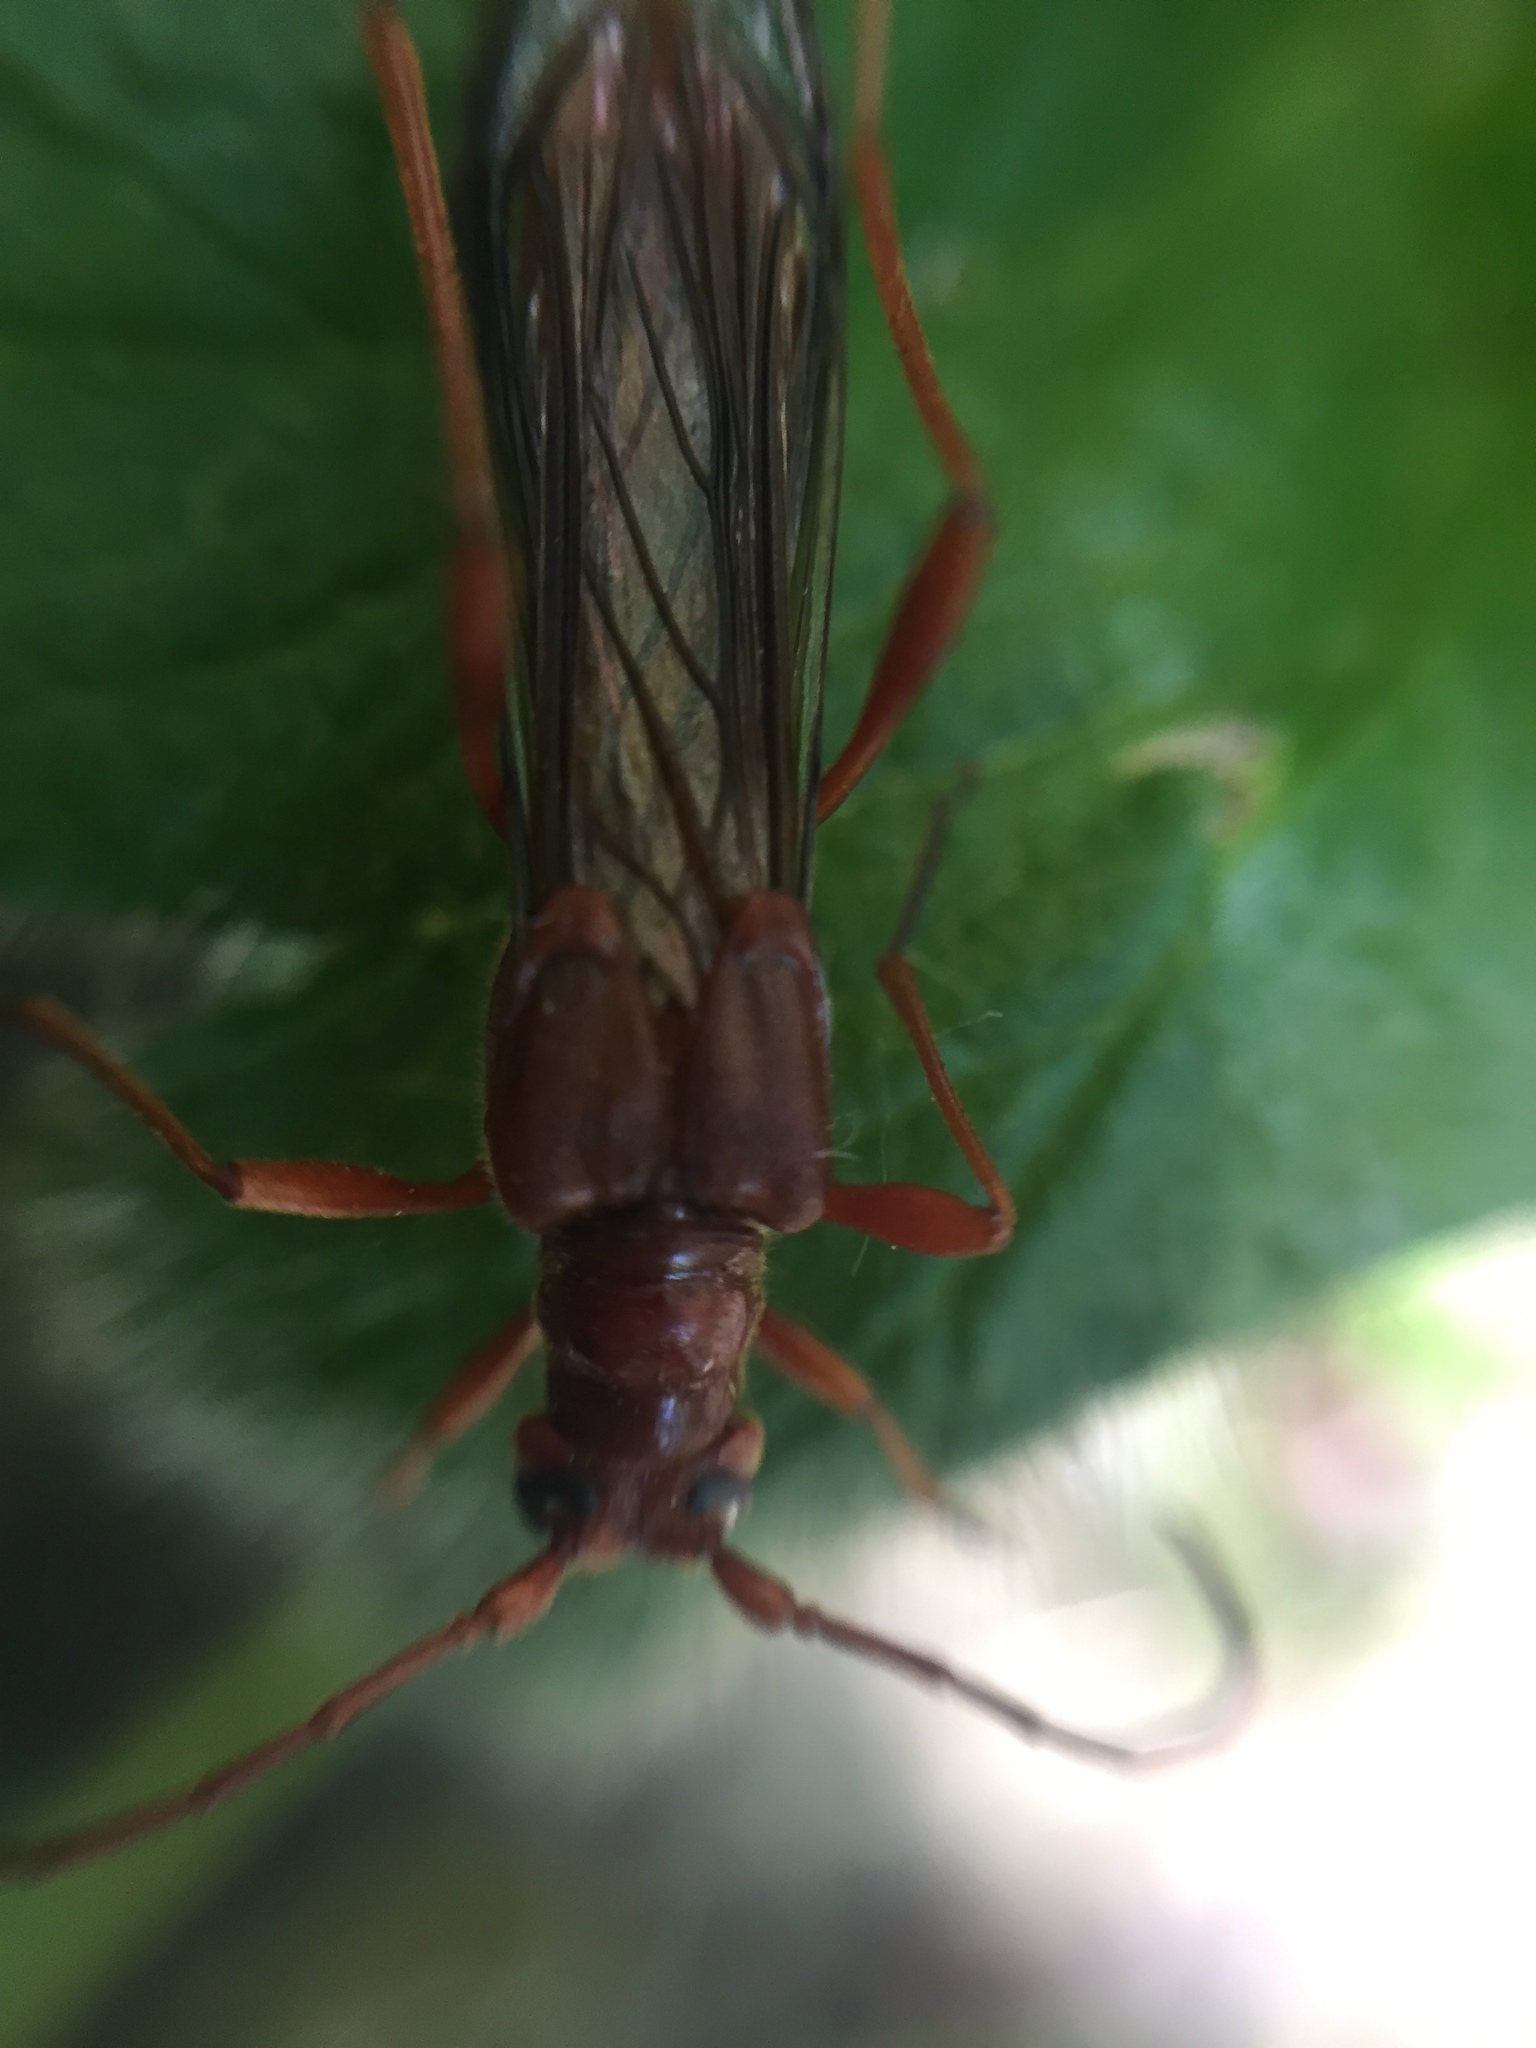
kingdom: Animalia
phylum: Arthropoda
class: Insecta
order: Coleoptera
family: Cerambycidae
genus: Necydalis
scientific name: Necydalis laevicollis
